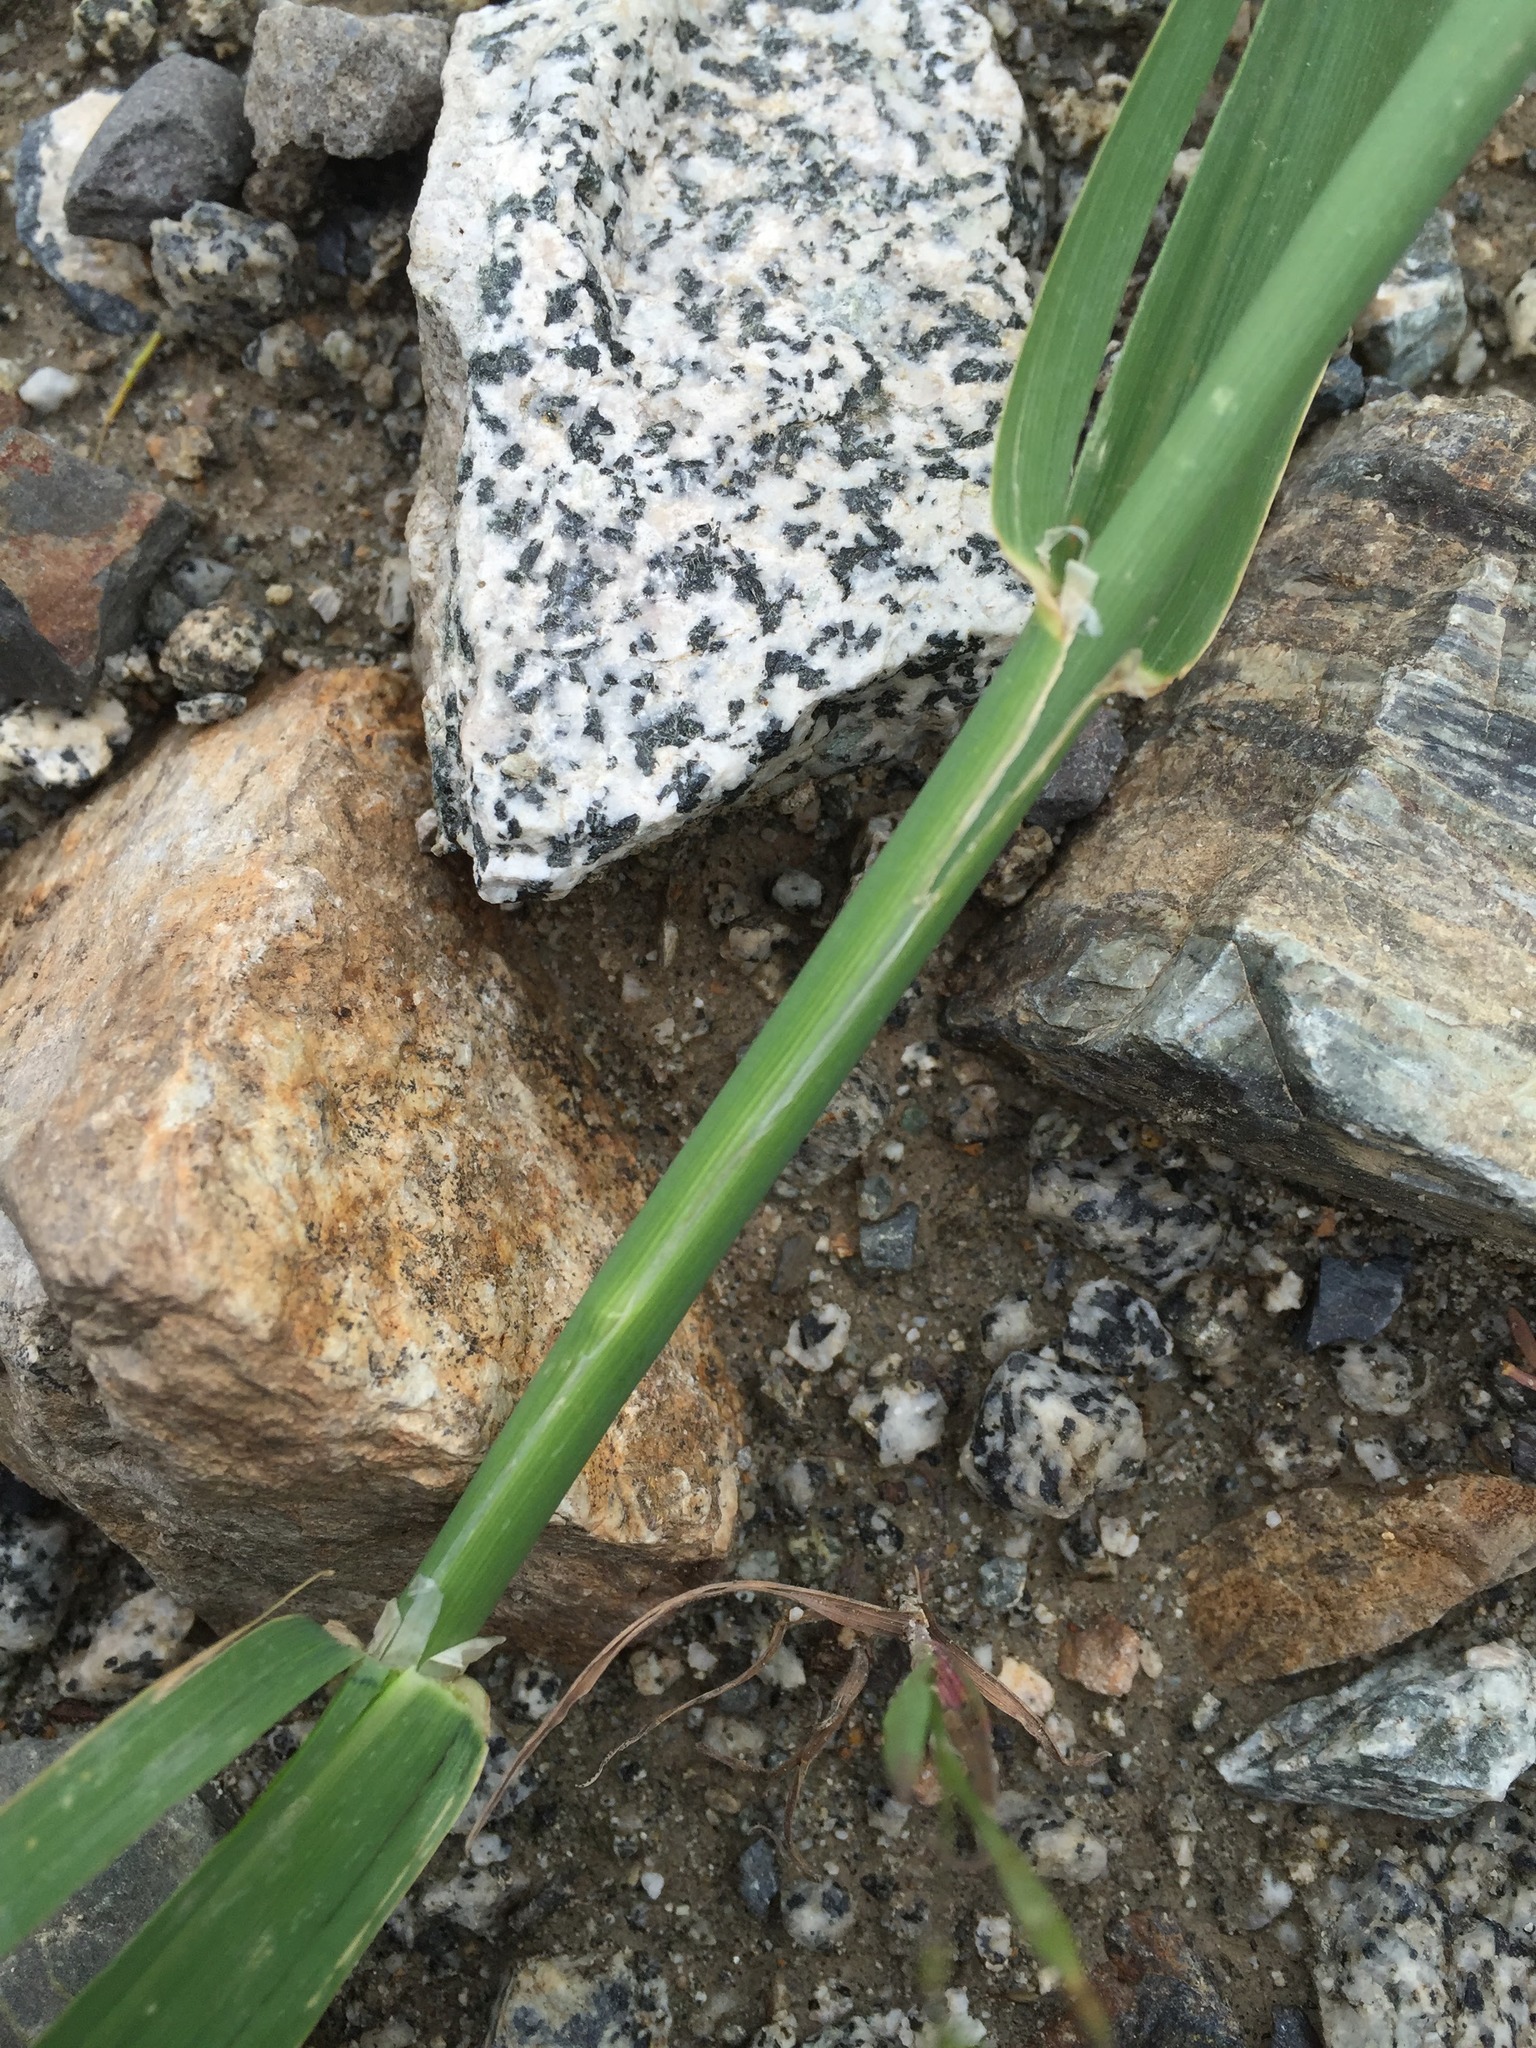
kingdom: Plantae
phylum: Tracheophyta
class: Liliopsida
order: Poales
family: Poaceae
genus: Phalaris
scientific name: Phalaris arundinacea
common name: Reed canary-grass
